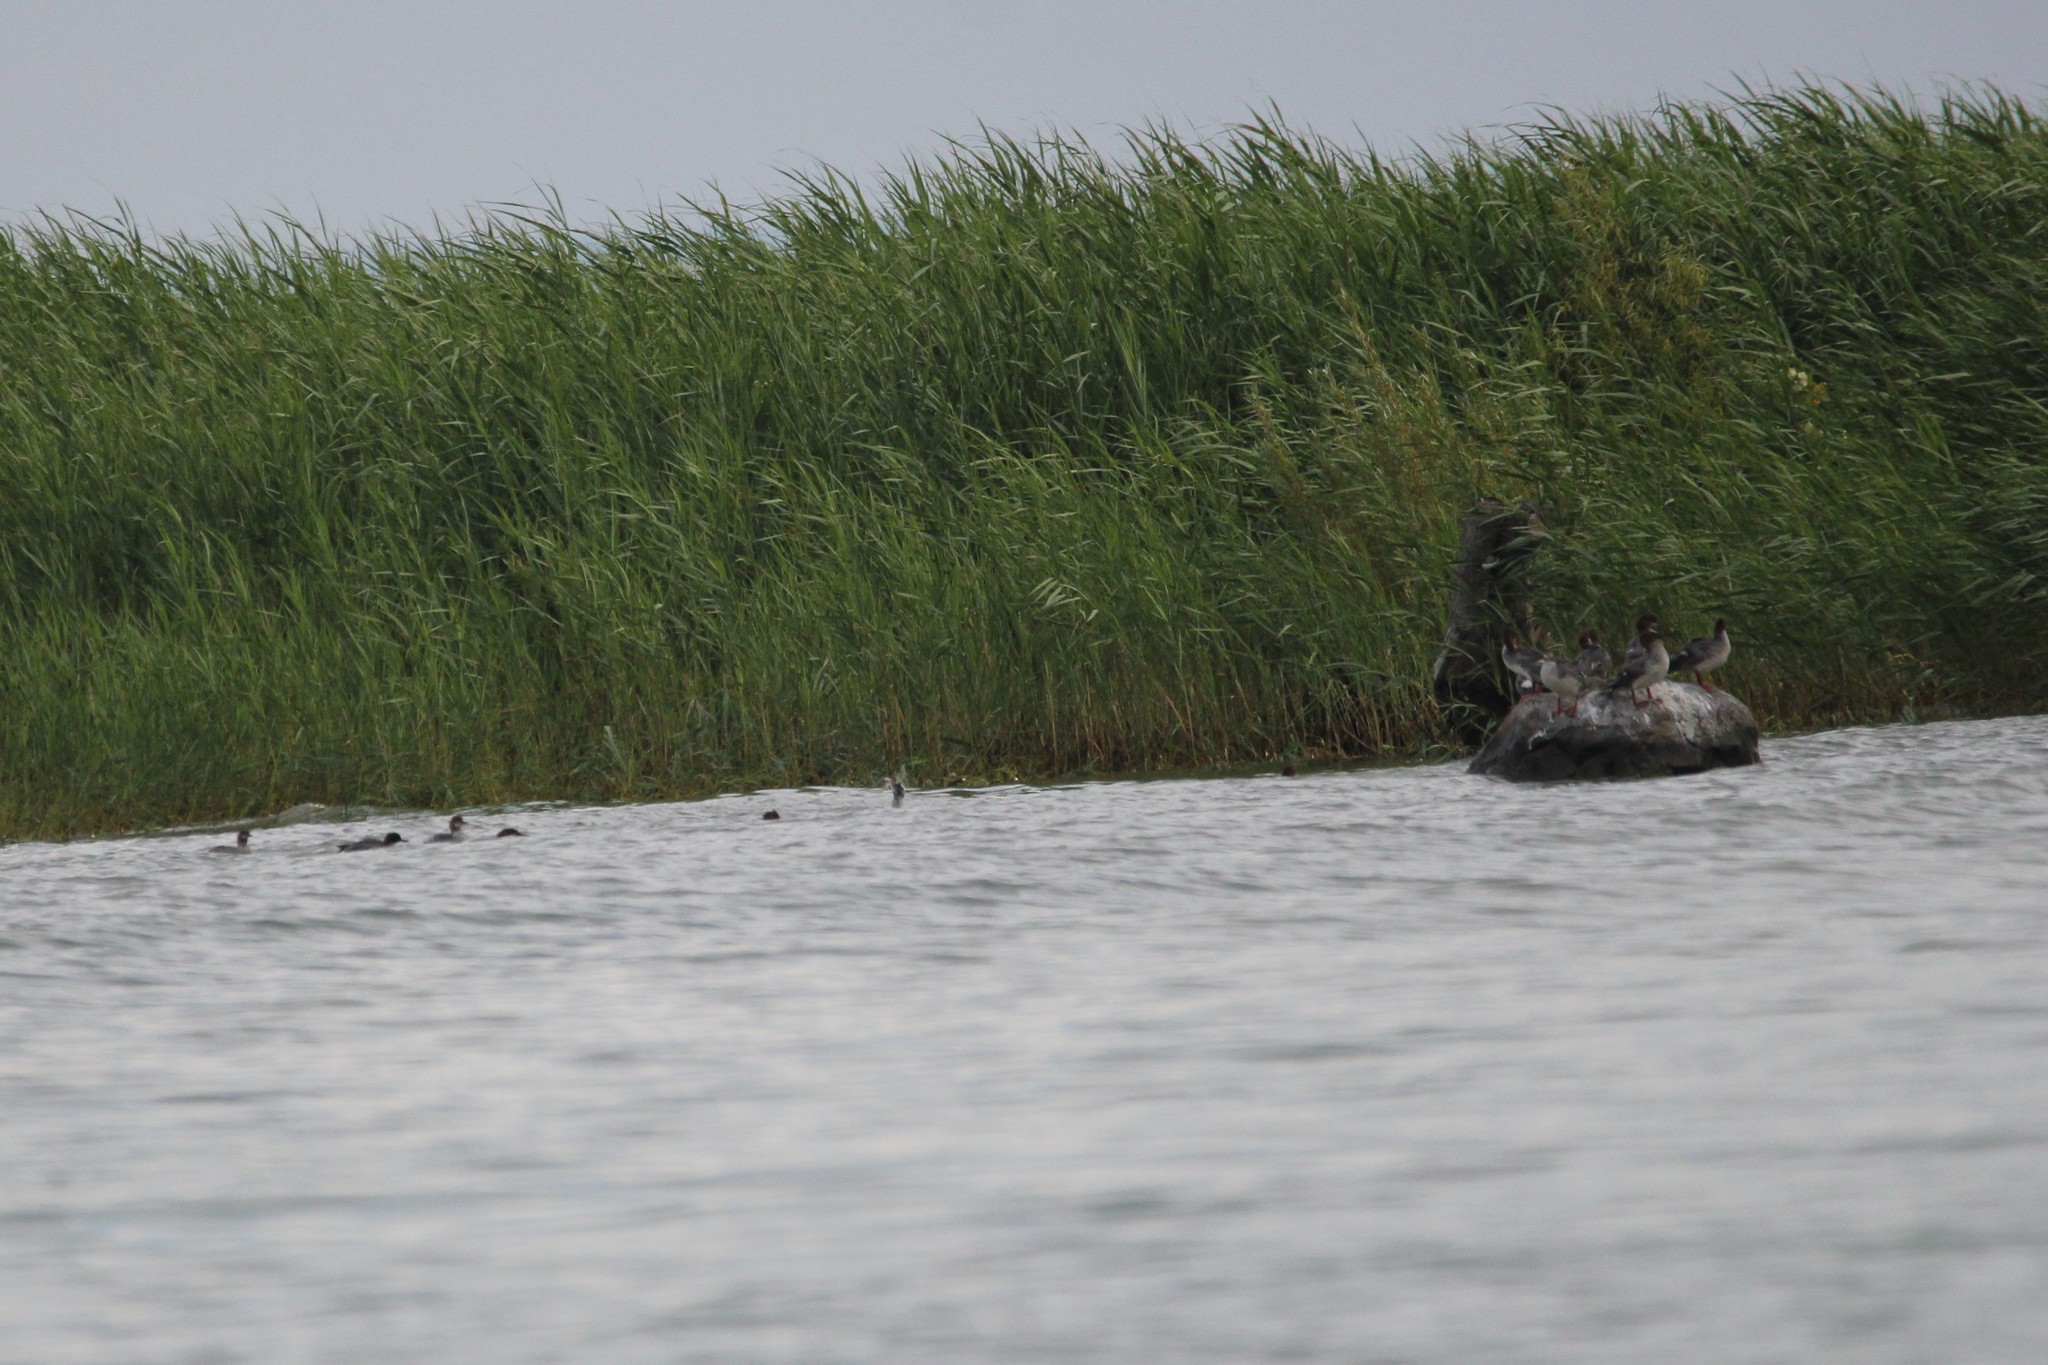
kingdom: Animalia
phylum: Chordata
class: Aves
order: Anseriformes
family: Anatidae
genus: Mergus
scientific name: Mergus merganser
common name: Common merganser
